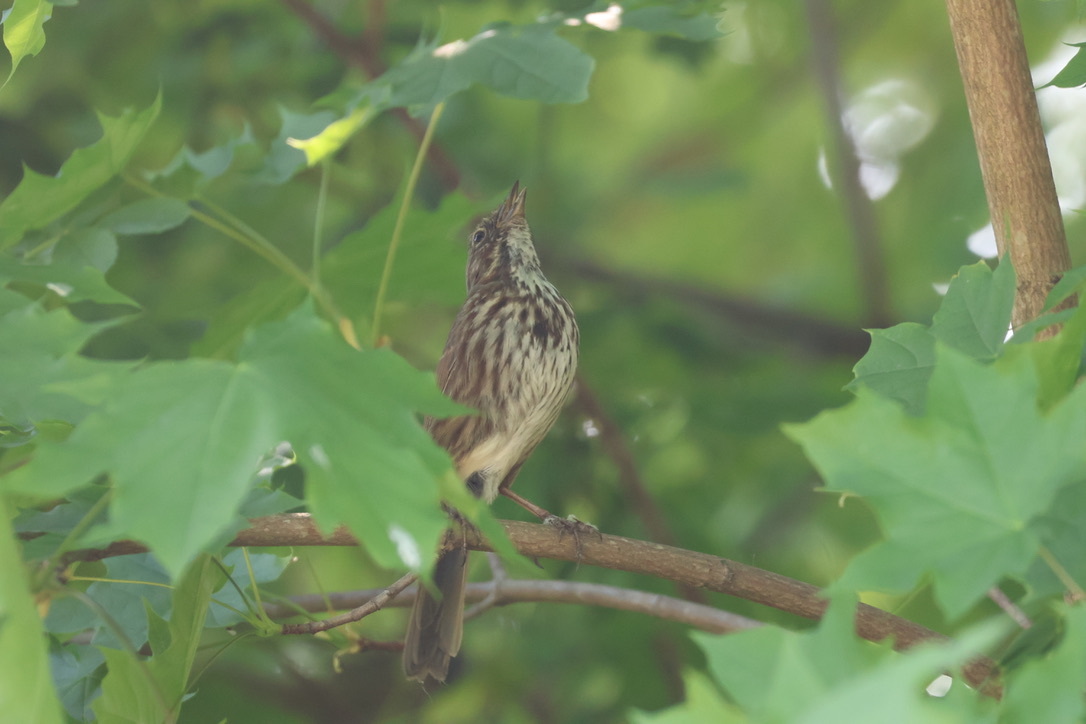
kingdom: Animalia
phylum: Chordata
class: Aves
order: Passeriformes
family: Passerellidae
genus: Melospiza
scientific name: Melospiza melodia
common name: Song sparrow
